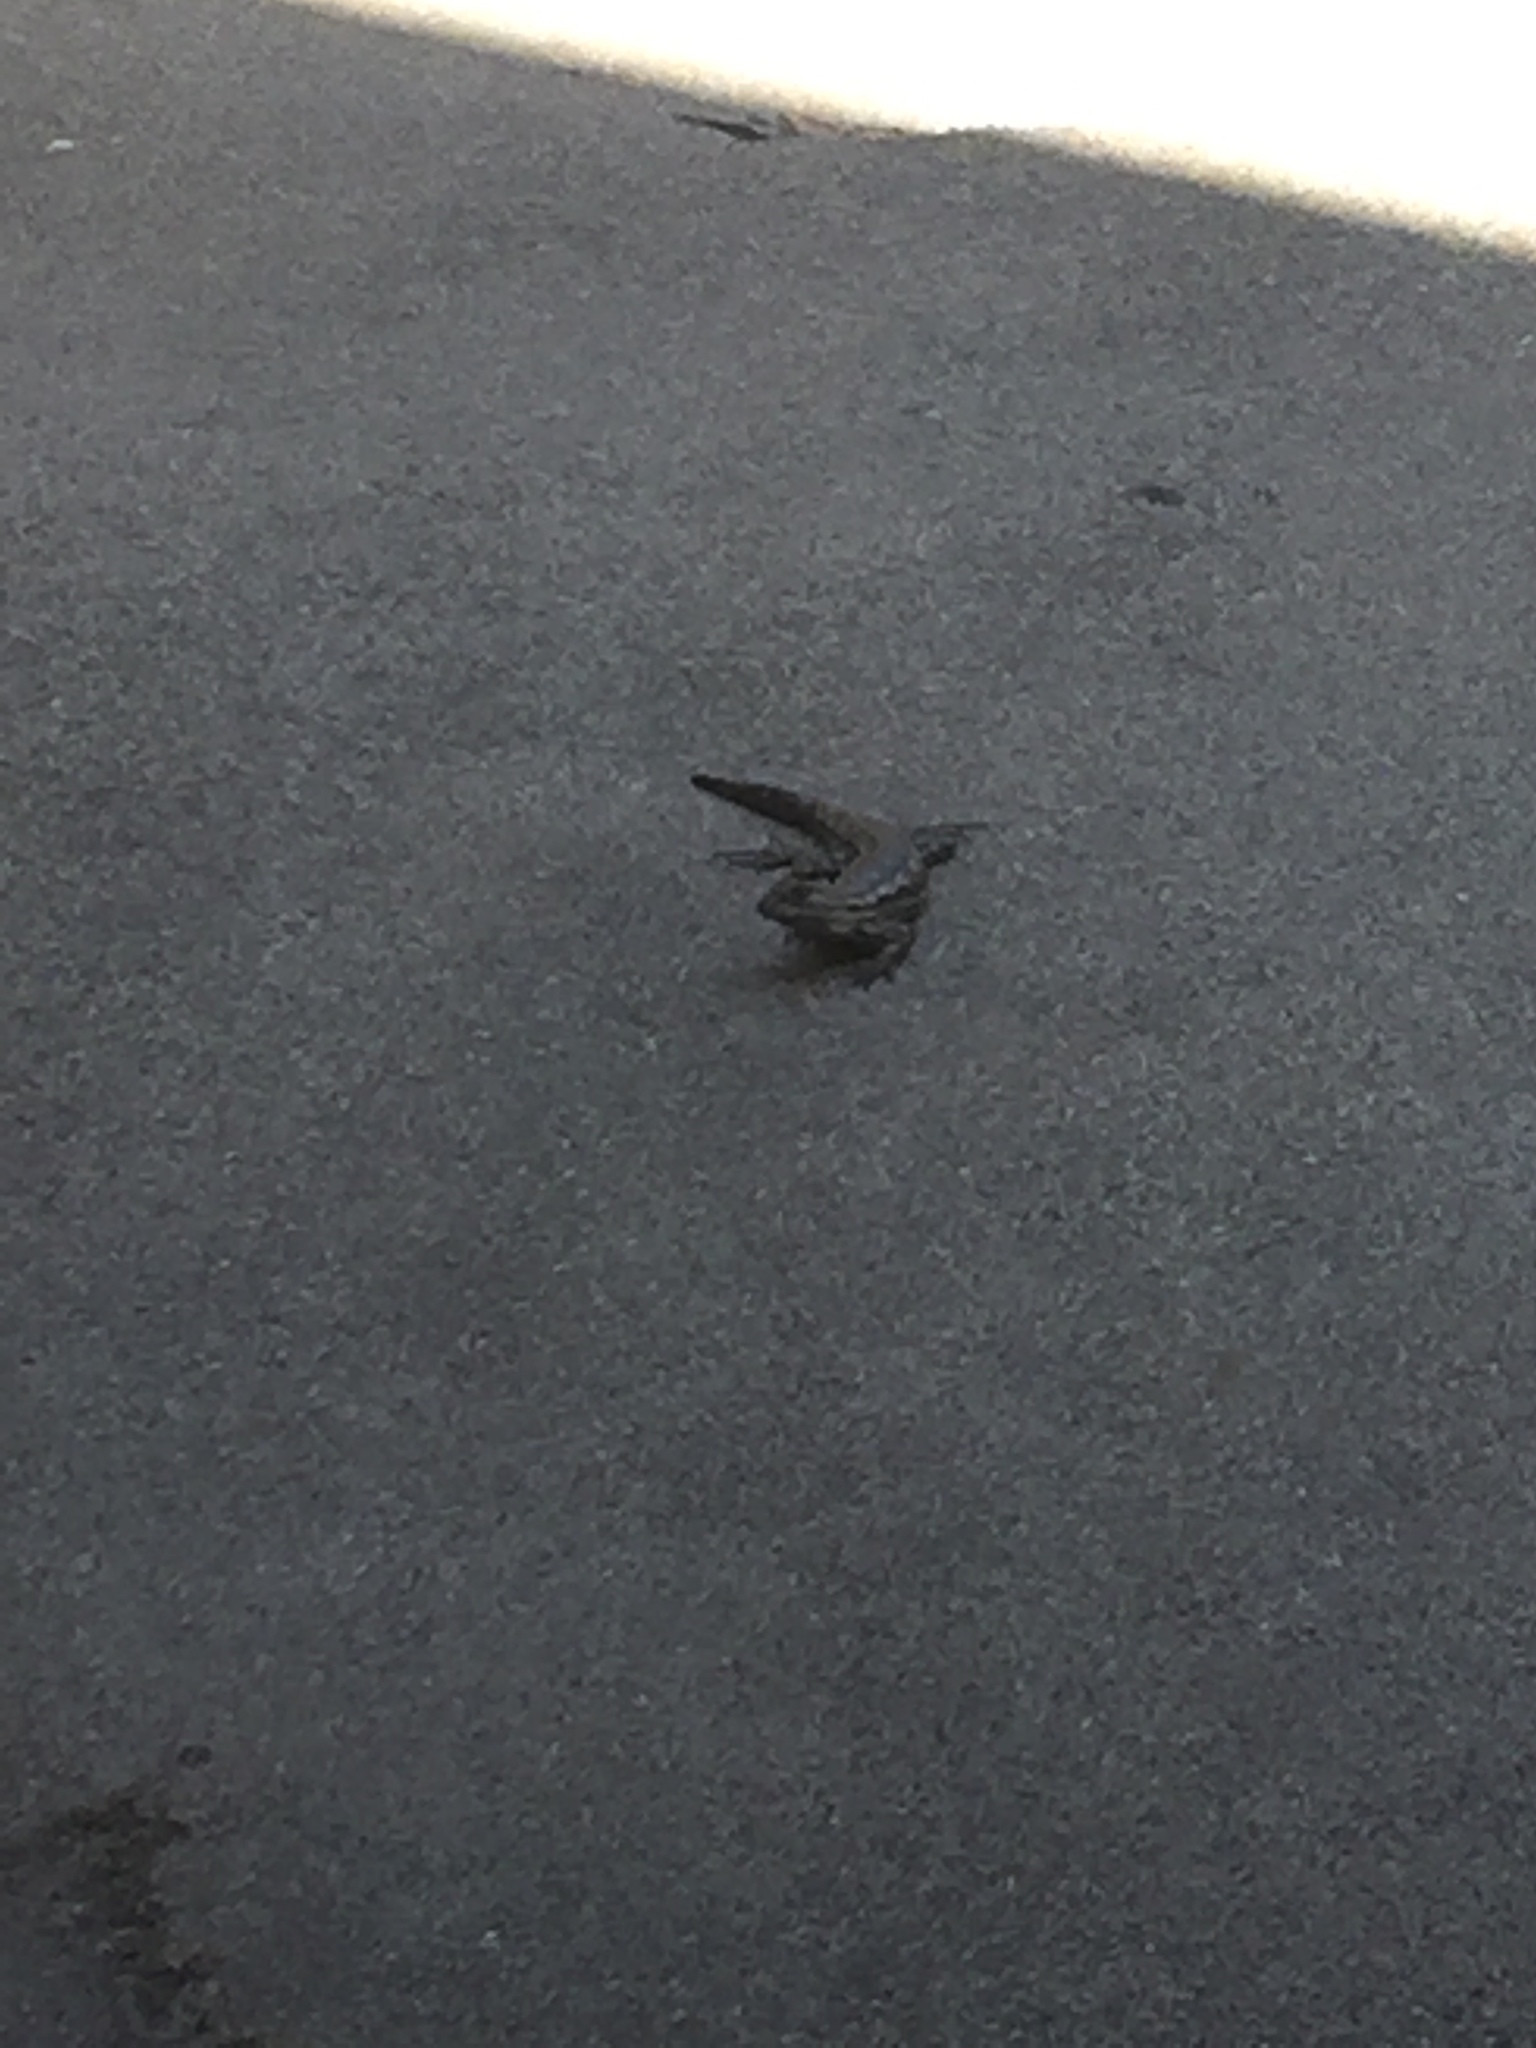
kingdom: Animalia
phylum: Chordata
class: Squamata
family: Phrynosomatidae
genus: Sceloporus
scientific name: Sceloporus occidentalis
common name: Western fence lizard
